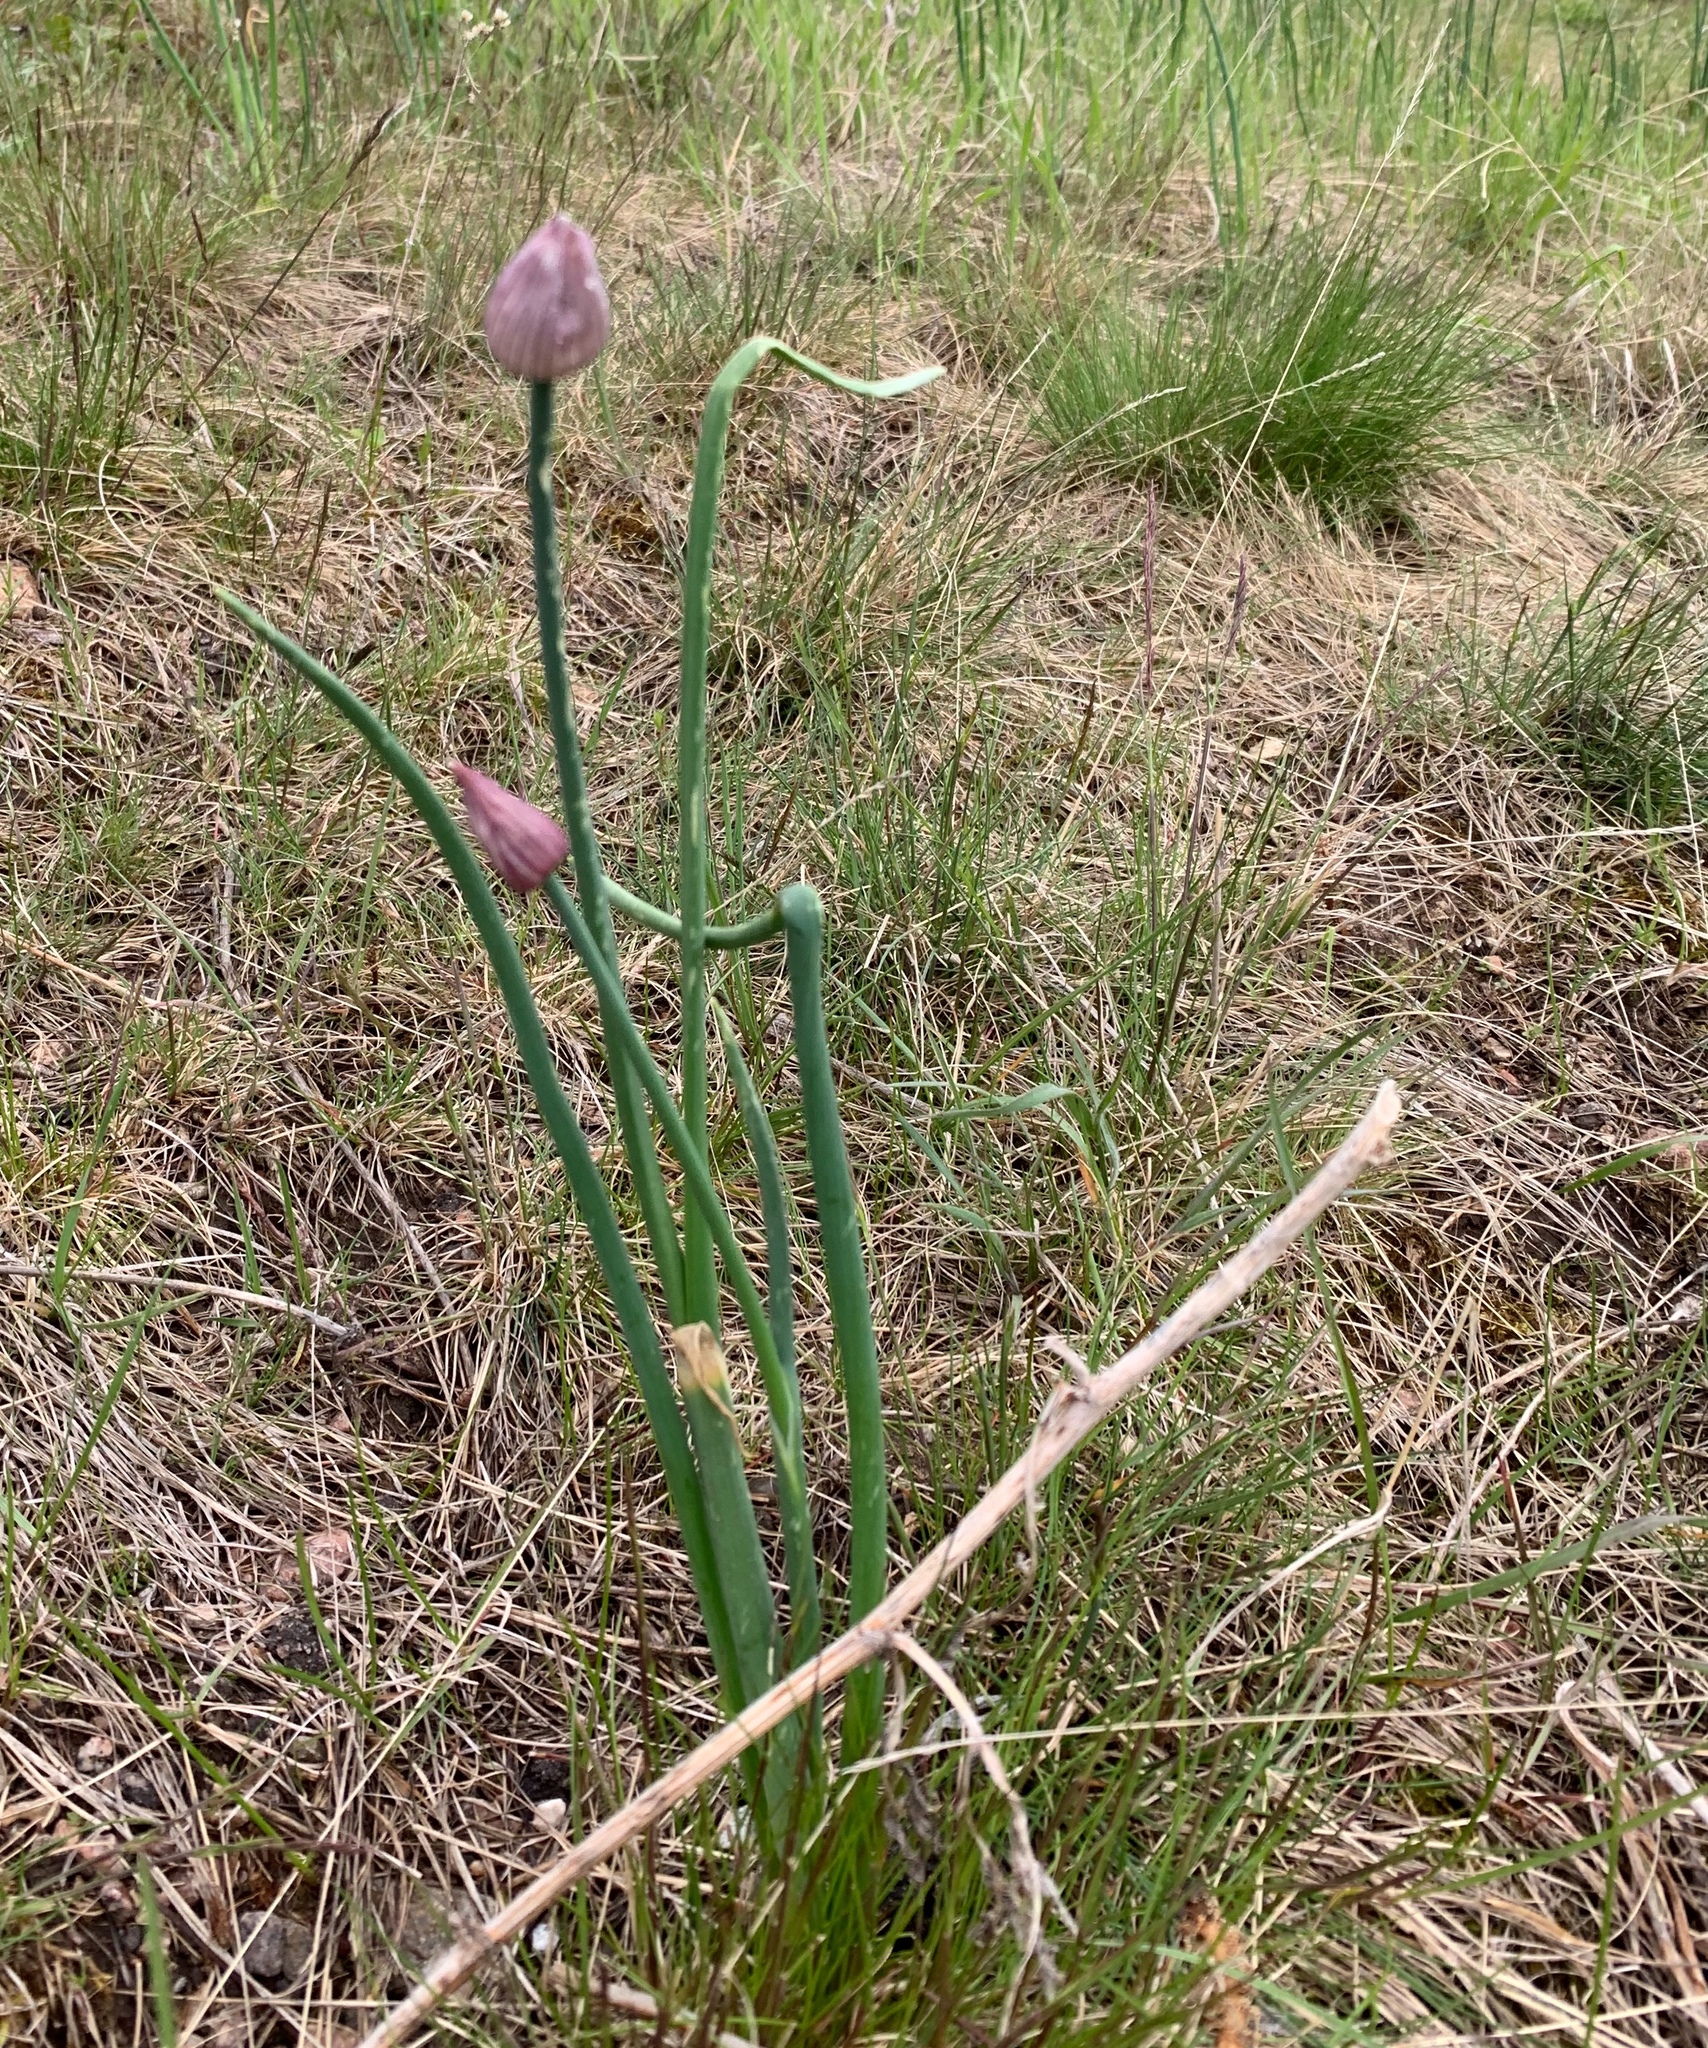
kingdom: Plantae
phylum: Tracheophyta
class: Liliopsida
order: Asparagales
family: Amaryllidaceae
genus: Allium
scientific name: Allium schoenoprasum
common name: Chives
